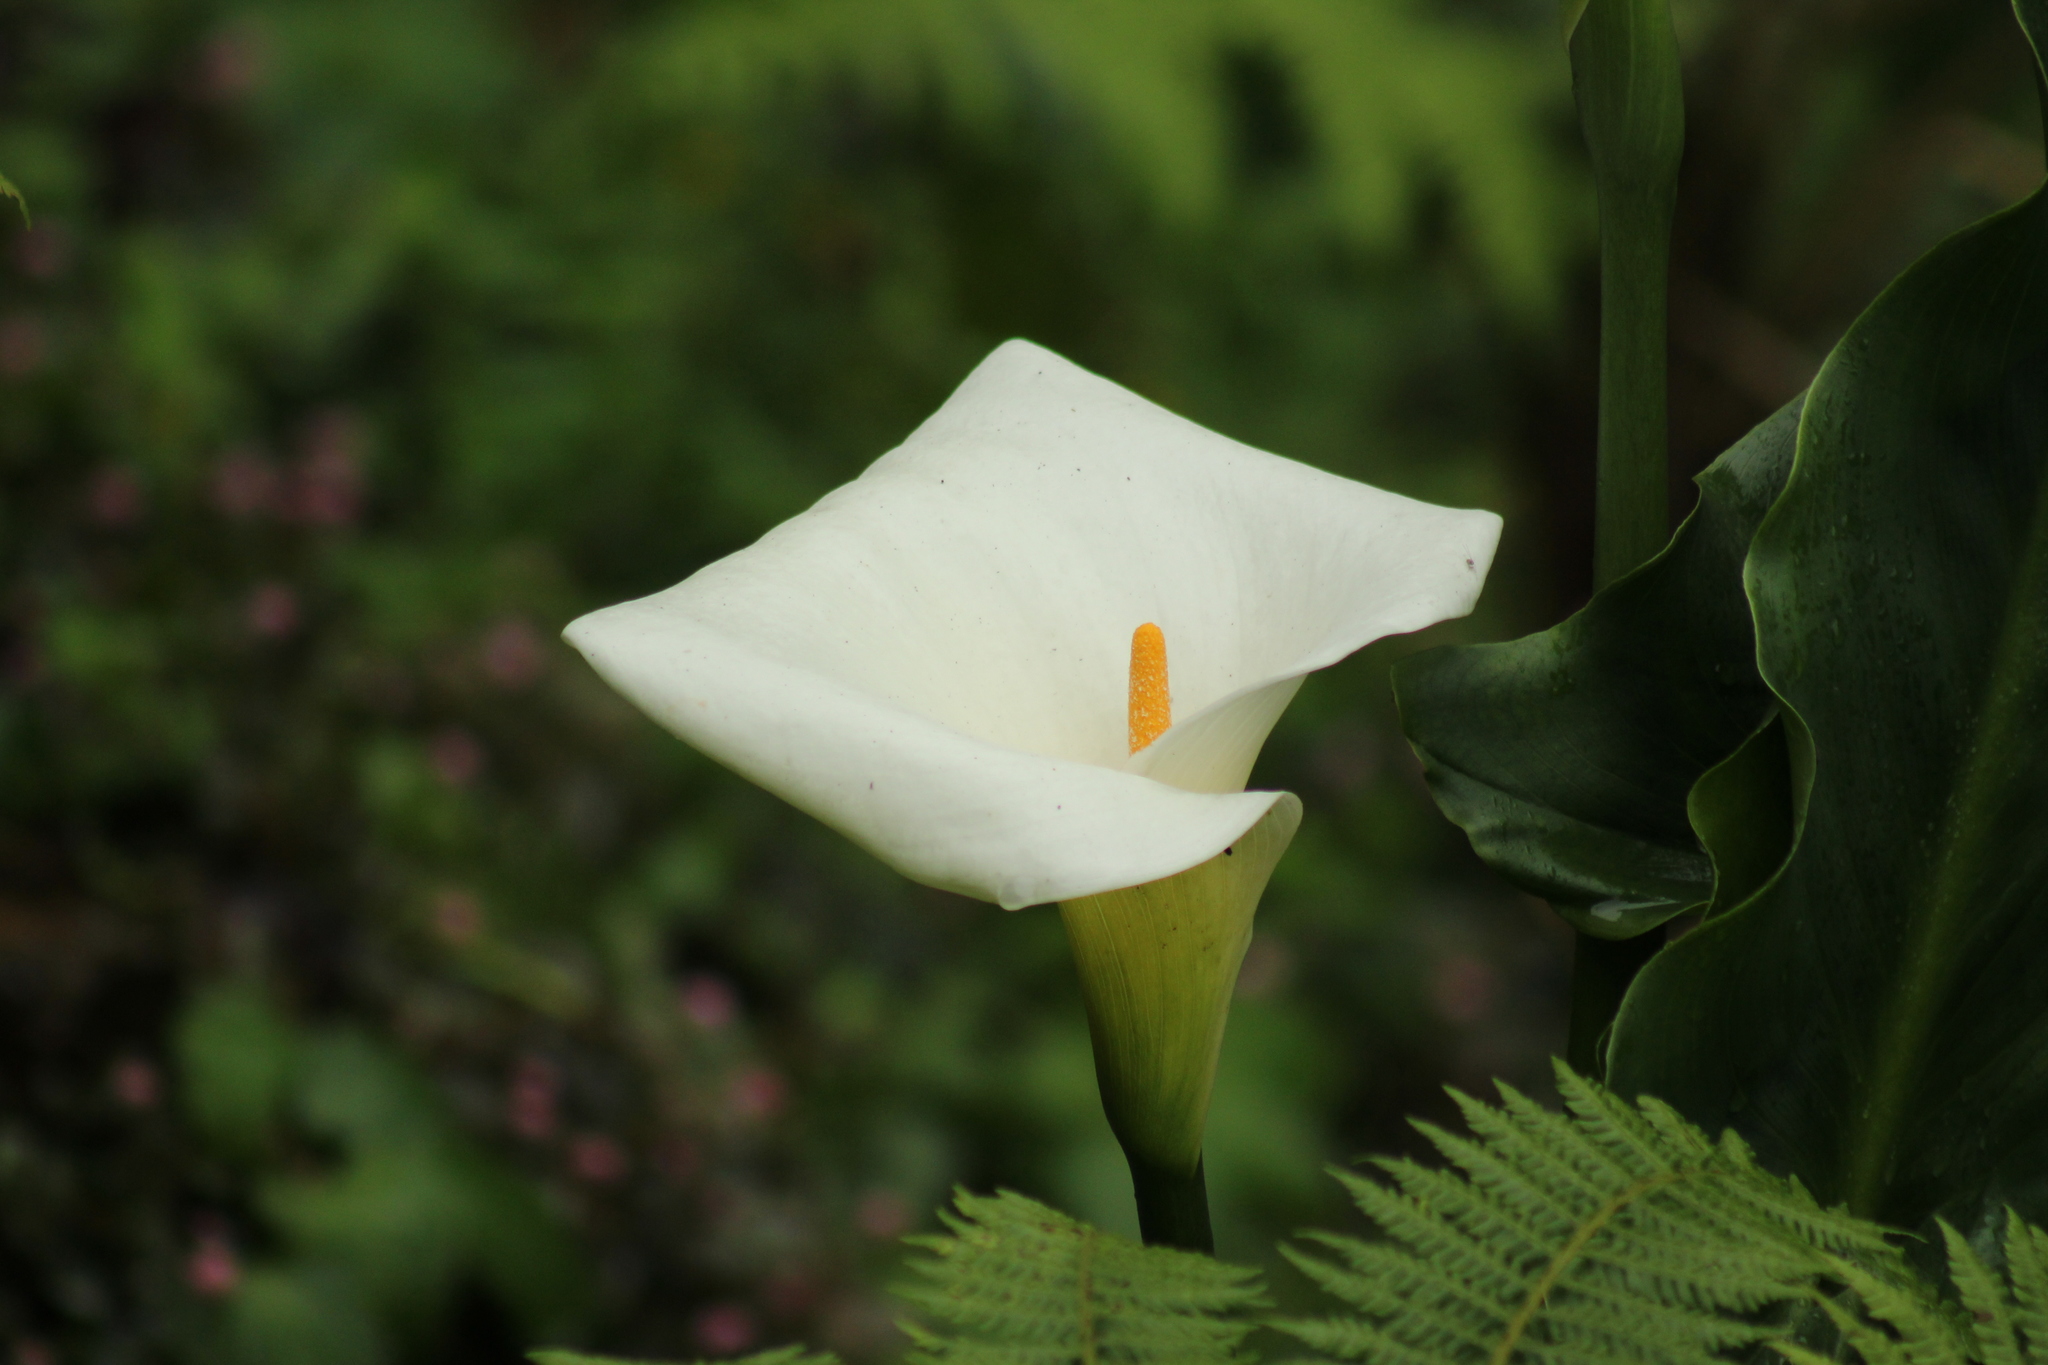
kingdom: Plantae
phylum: Tracheophyta
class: Liliopsida
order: Alismatales
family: Araceae
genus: Zantedeschia
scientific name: Zantedeschia aethiopica
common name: Altar-lily
